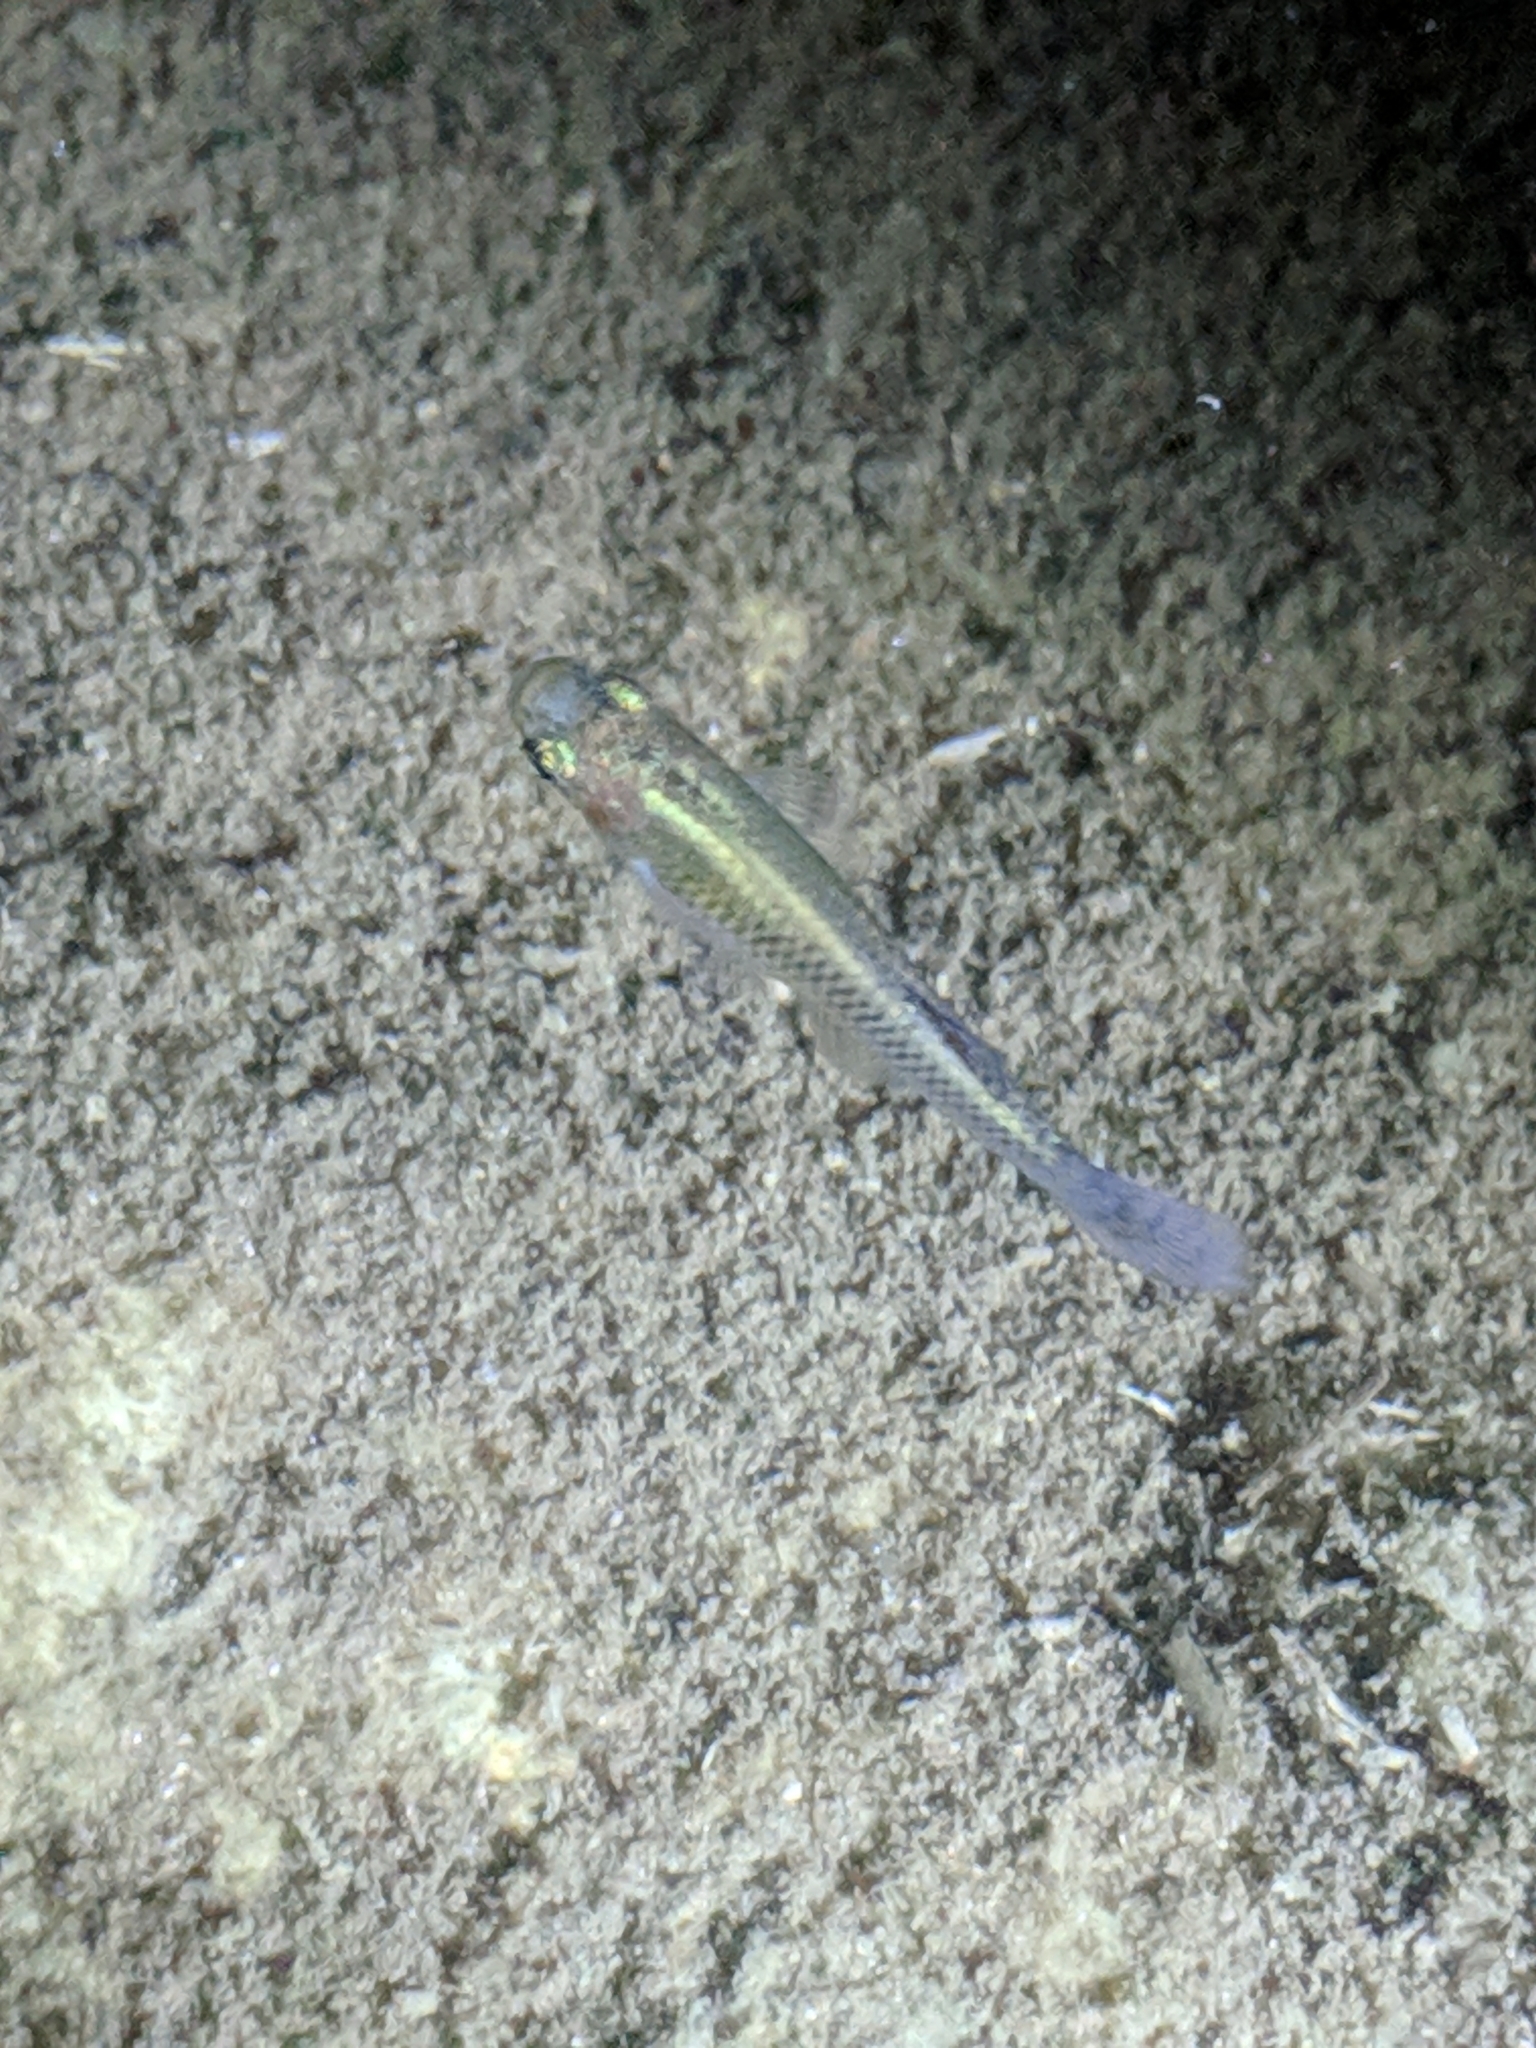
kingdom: Animalia
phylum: Chordata
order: Cyprinodontiformes
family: Poeciliidae
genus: Gambusia
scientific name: Gambusia holbrooki
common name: Eastern mosquitofish
